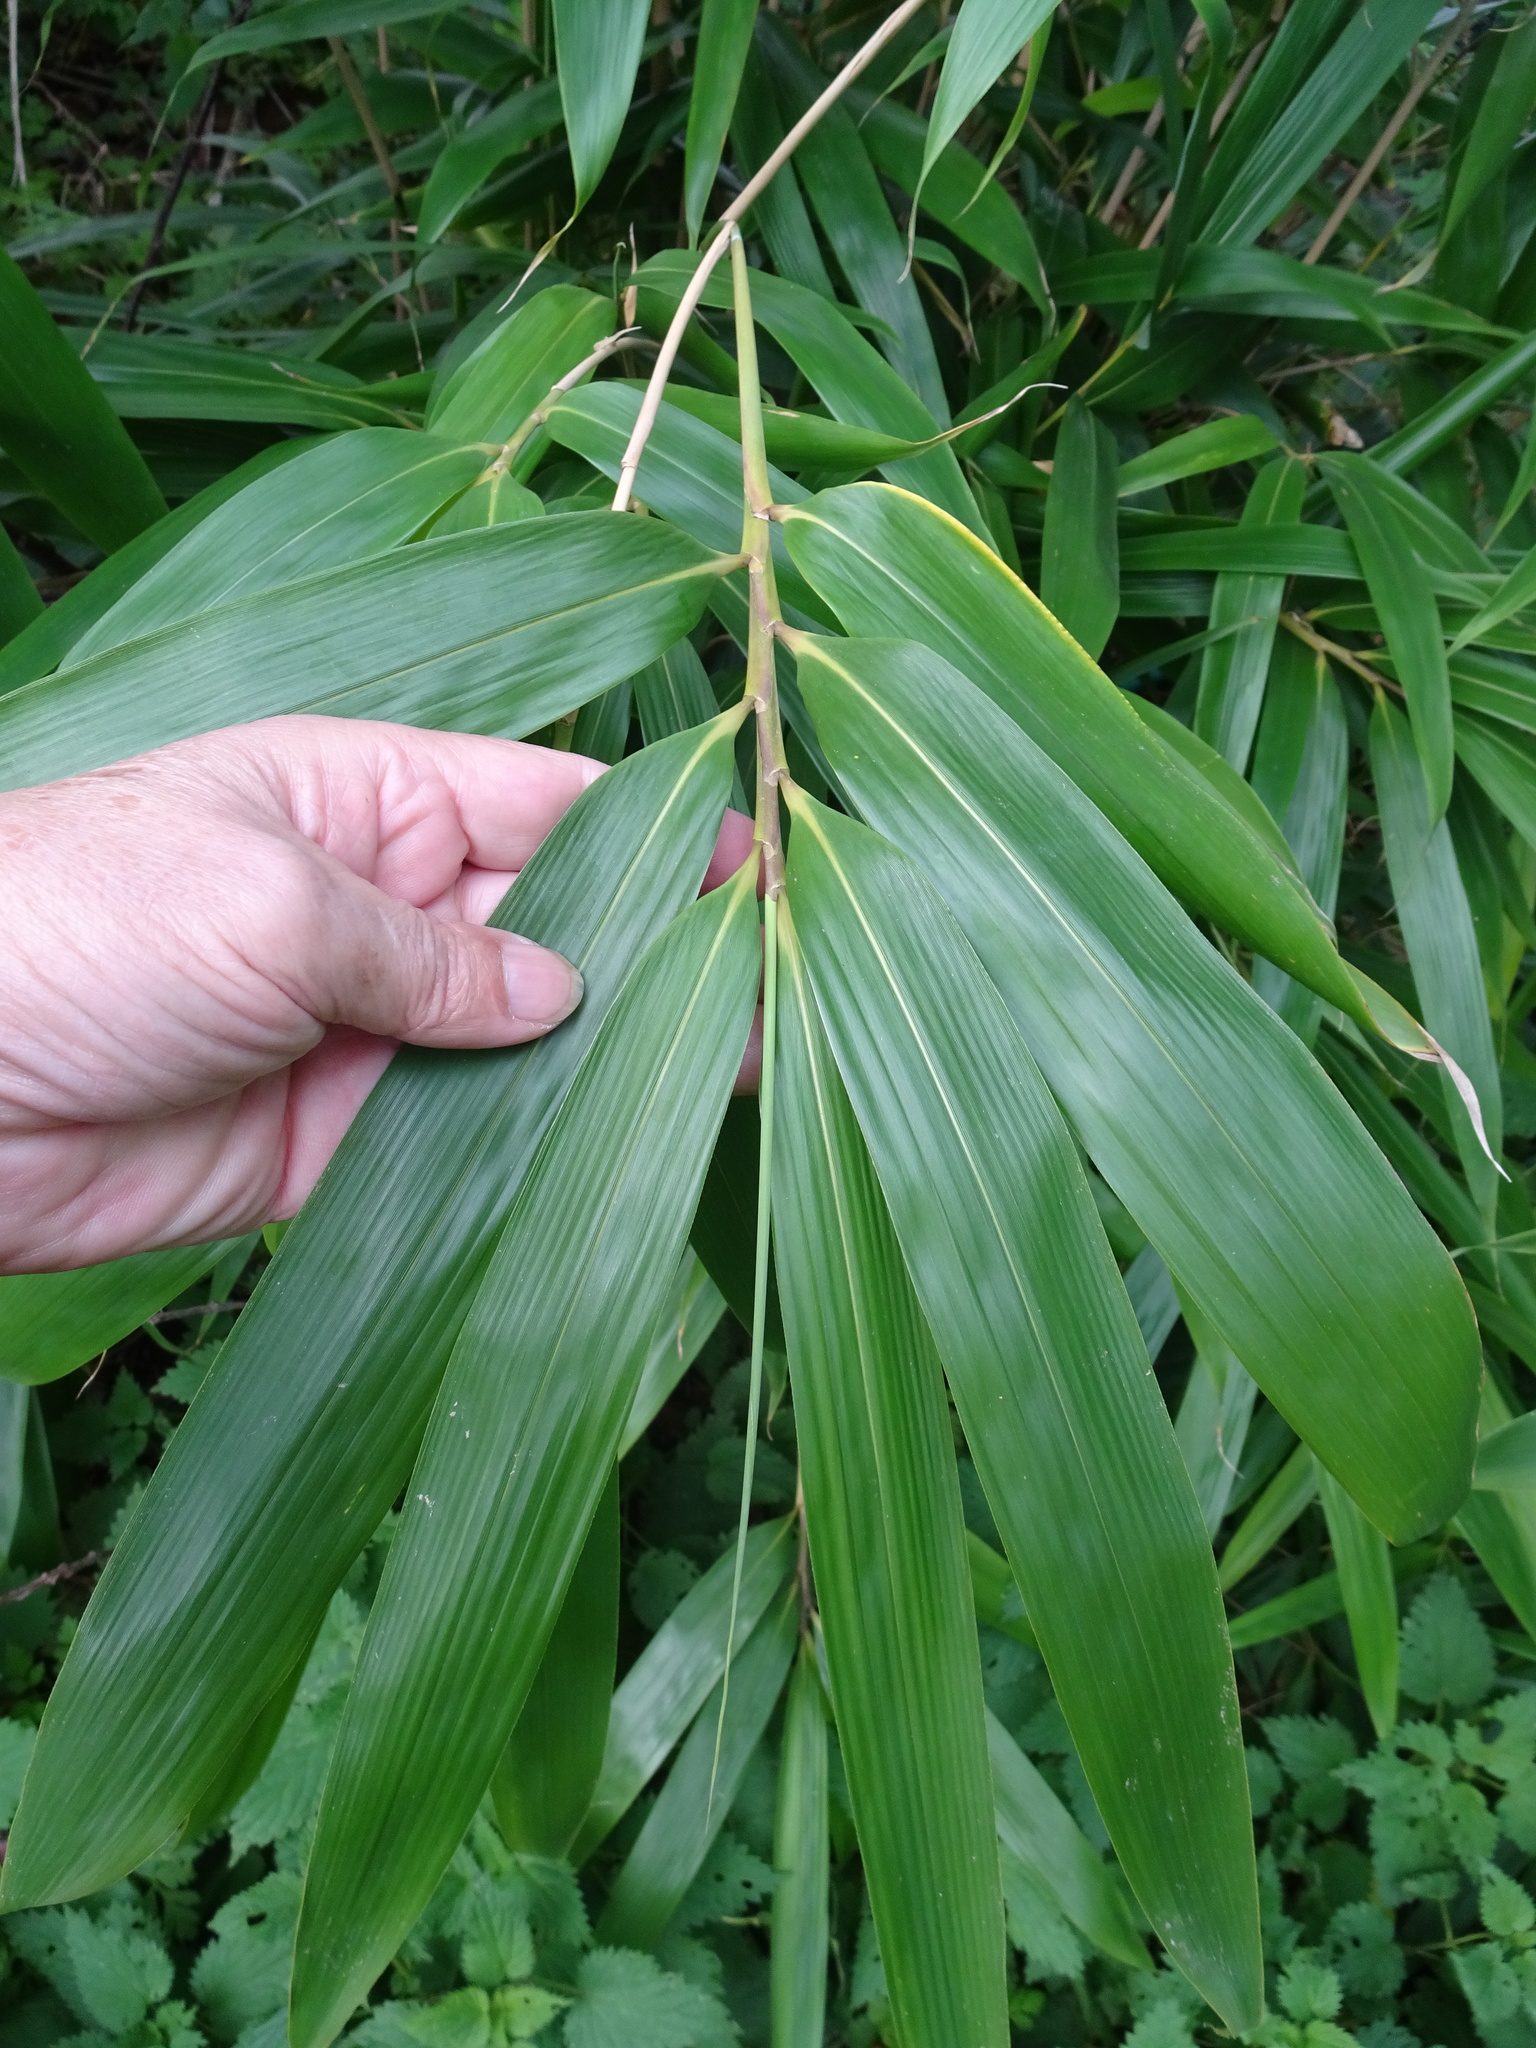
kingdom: Plantae
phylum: Tracheophyta
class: Liliopsida
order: Poales
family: Poaceae
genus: Pseudosasa
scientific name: Pseudosasa japonica
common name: Arrow bamboo
